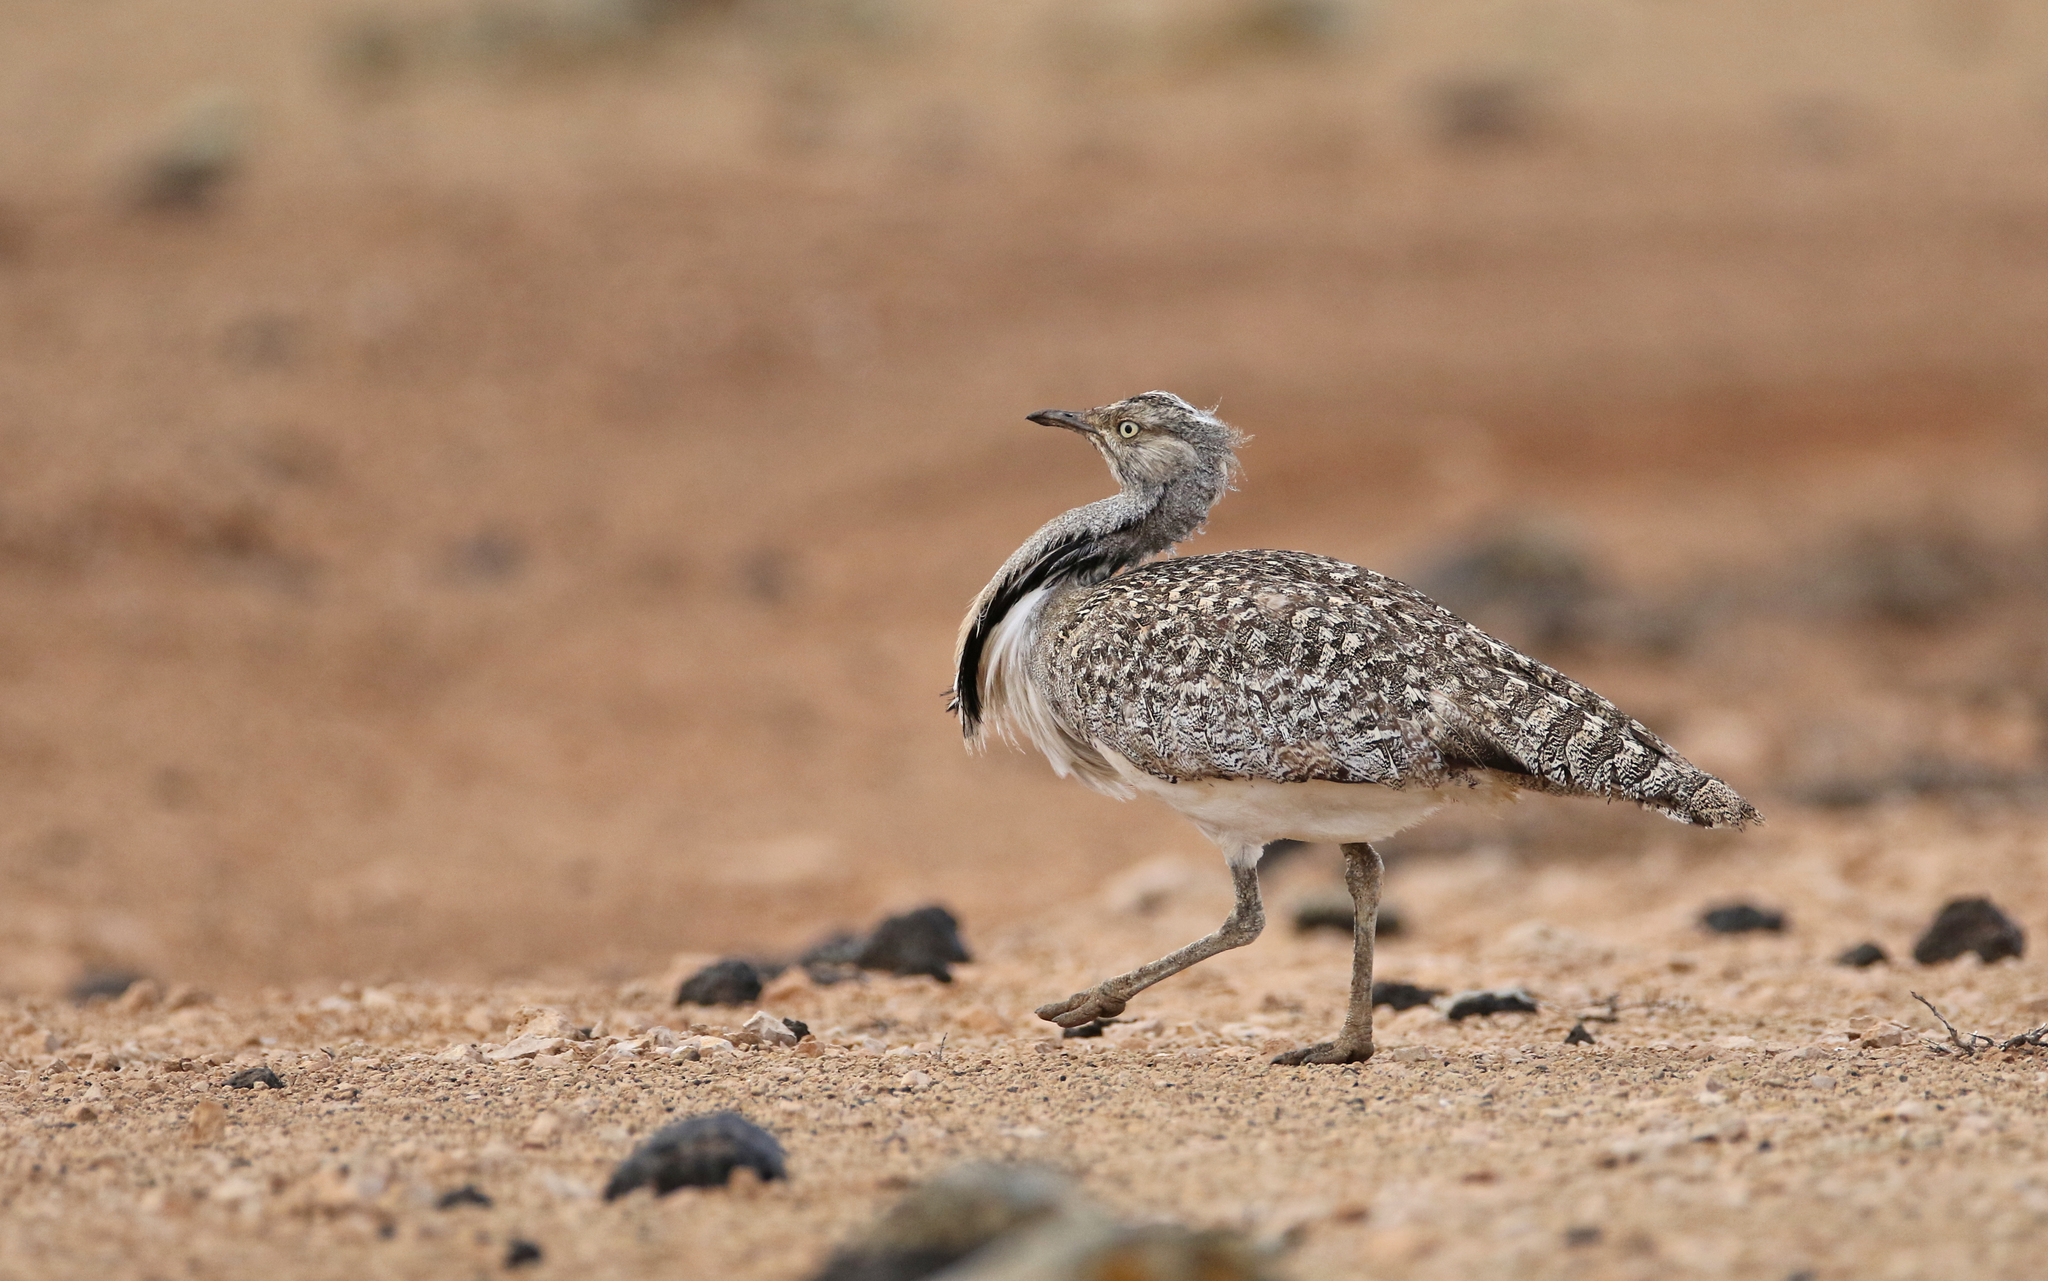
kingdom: Animalia
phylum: Chordata
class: Aves
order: Otidiformes
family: Otididae
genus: Chlamydotis
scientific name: Chlamydotis undulata
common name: Houbara bustard
